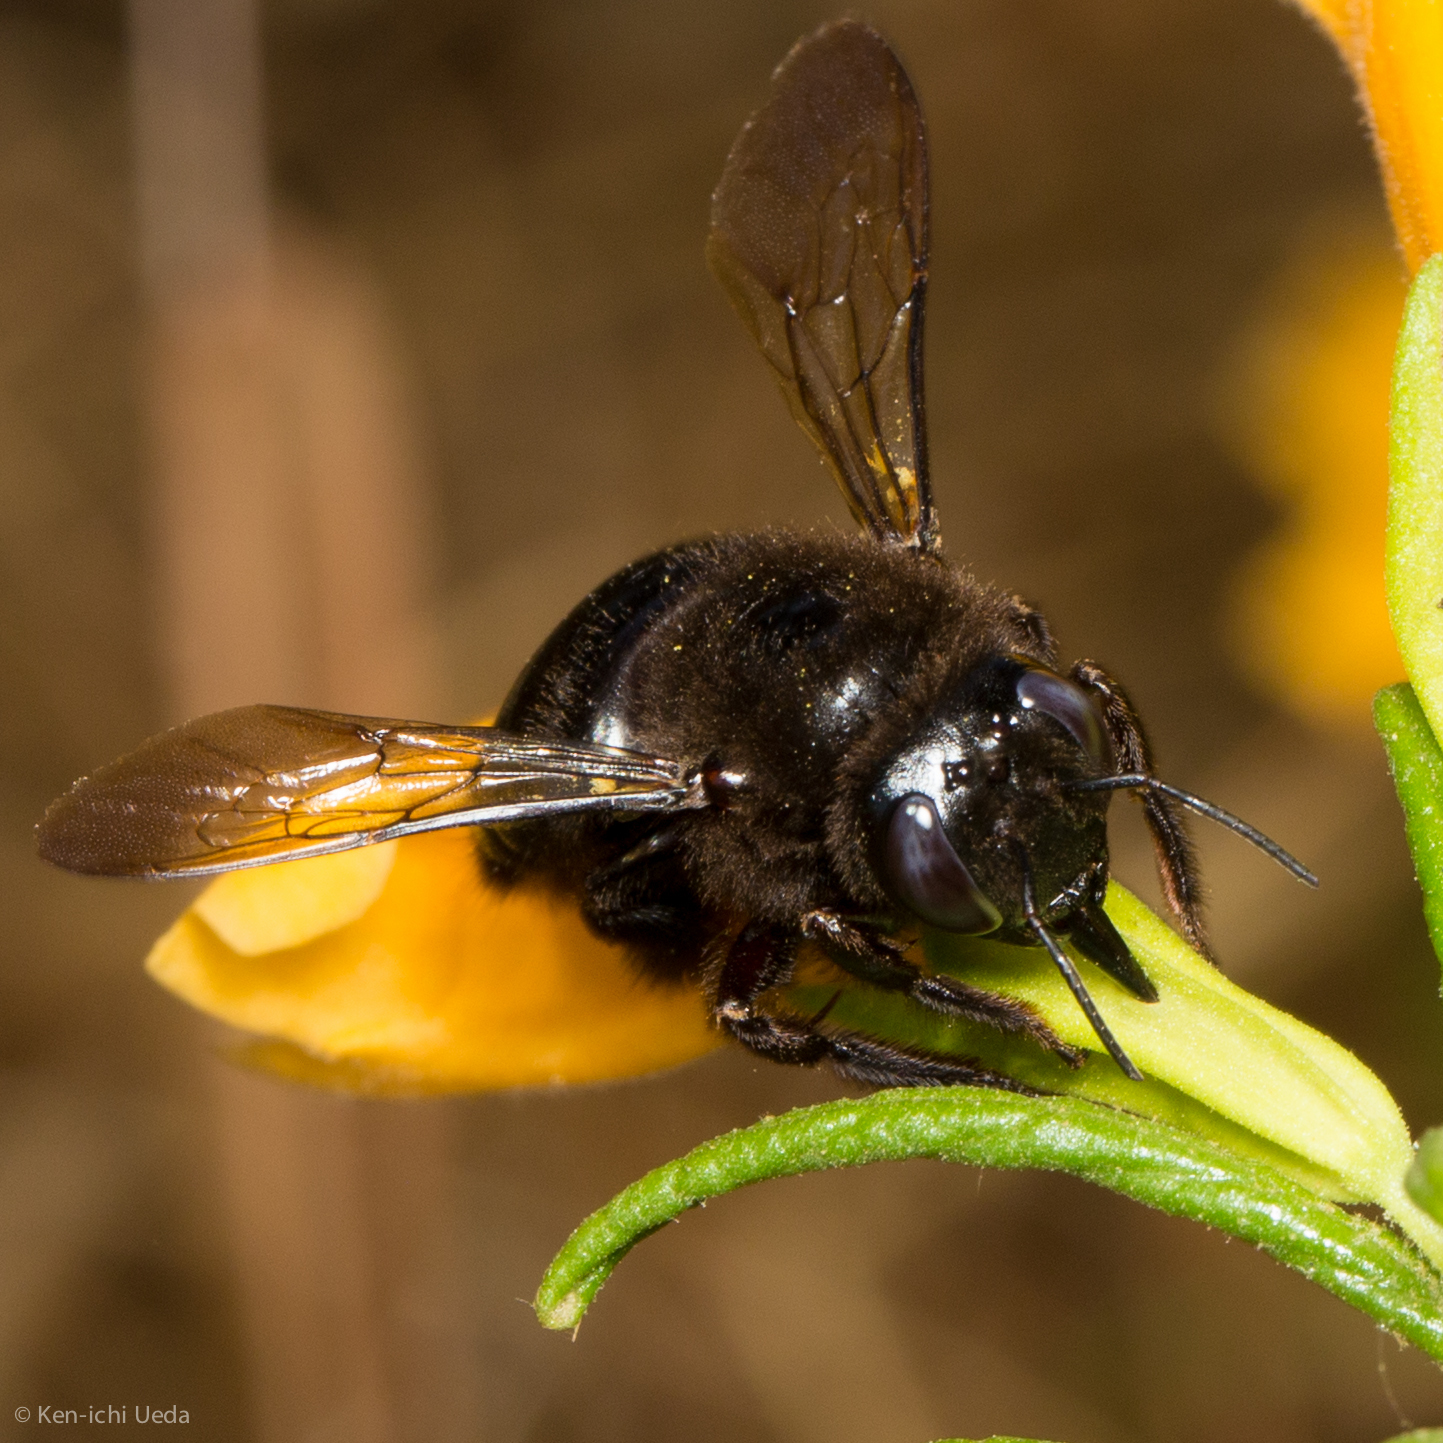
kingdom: Animalia
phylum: Arthropoda
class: Insecta
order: Hymenoptera
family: Apidae
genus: Xylocopa
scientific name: Xylocopa tabaniformis
